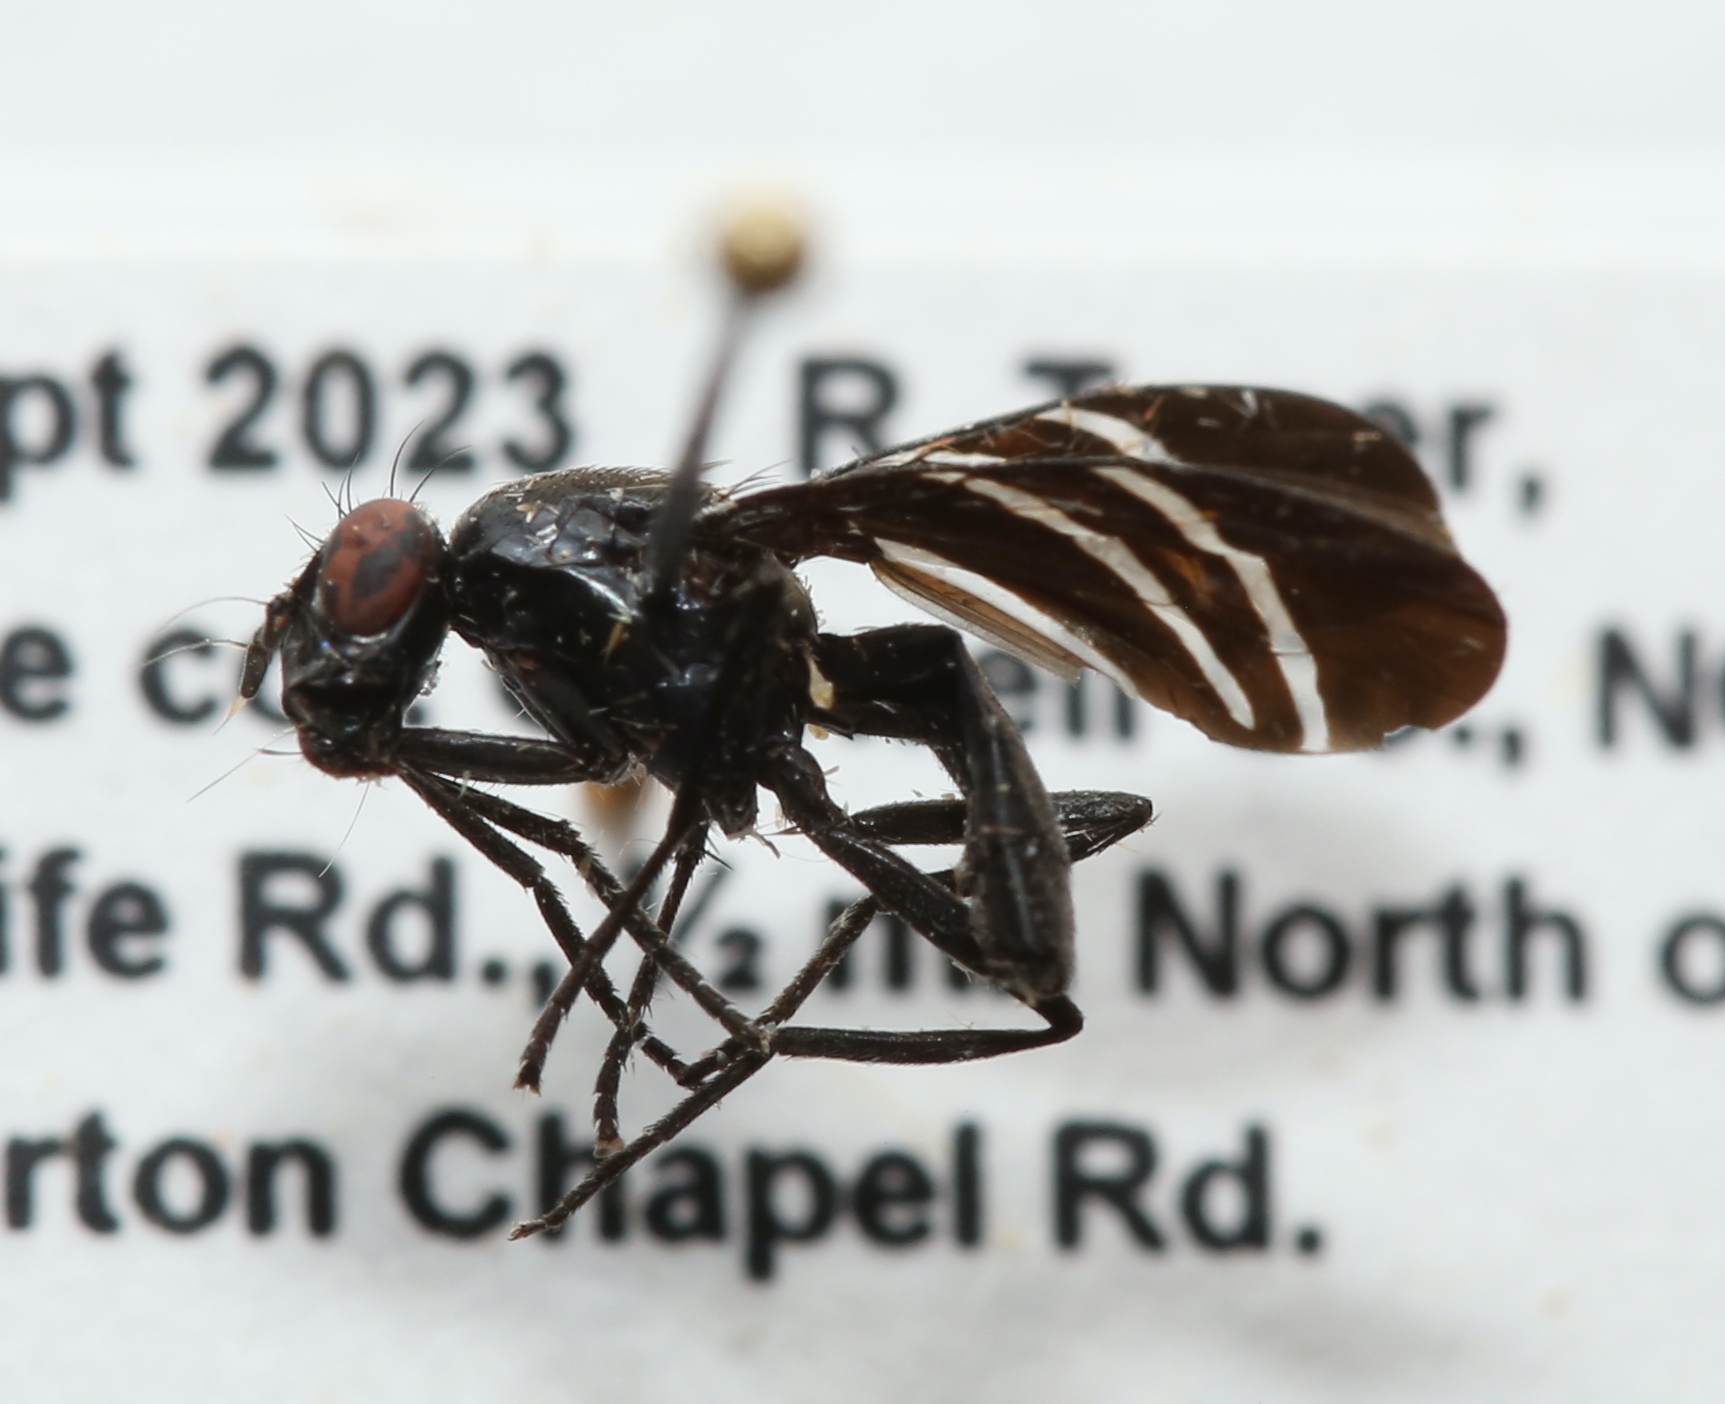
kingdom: Animalia
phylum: Arthropoda
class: Insecta
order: Diptera
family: Ulidiidae
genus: Tritoxa
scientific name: Tritoxa flexa
